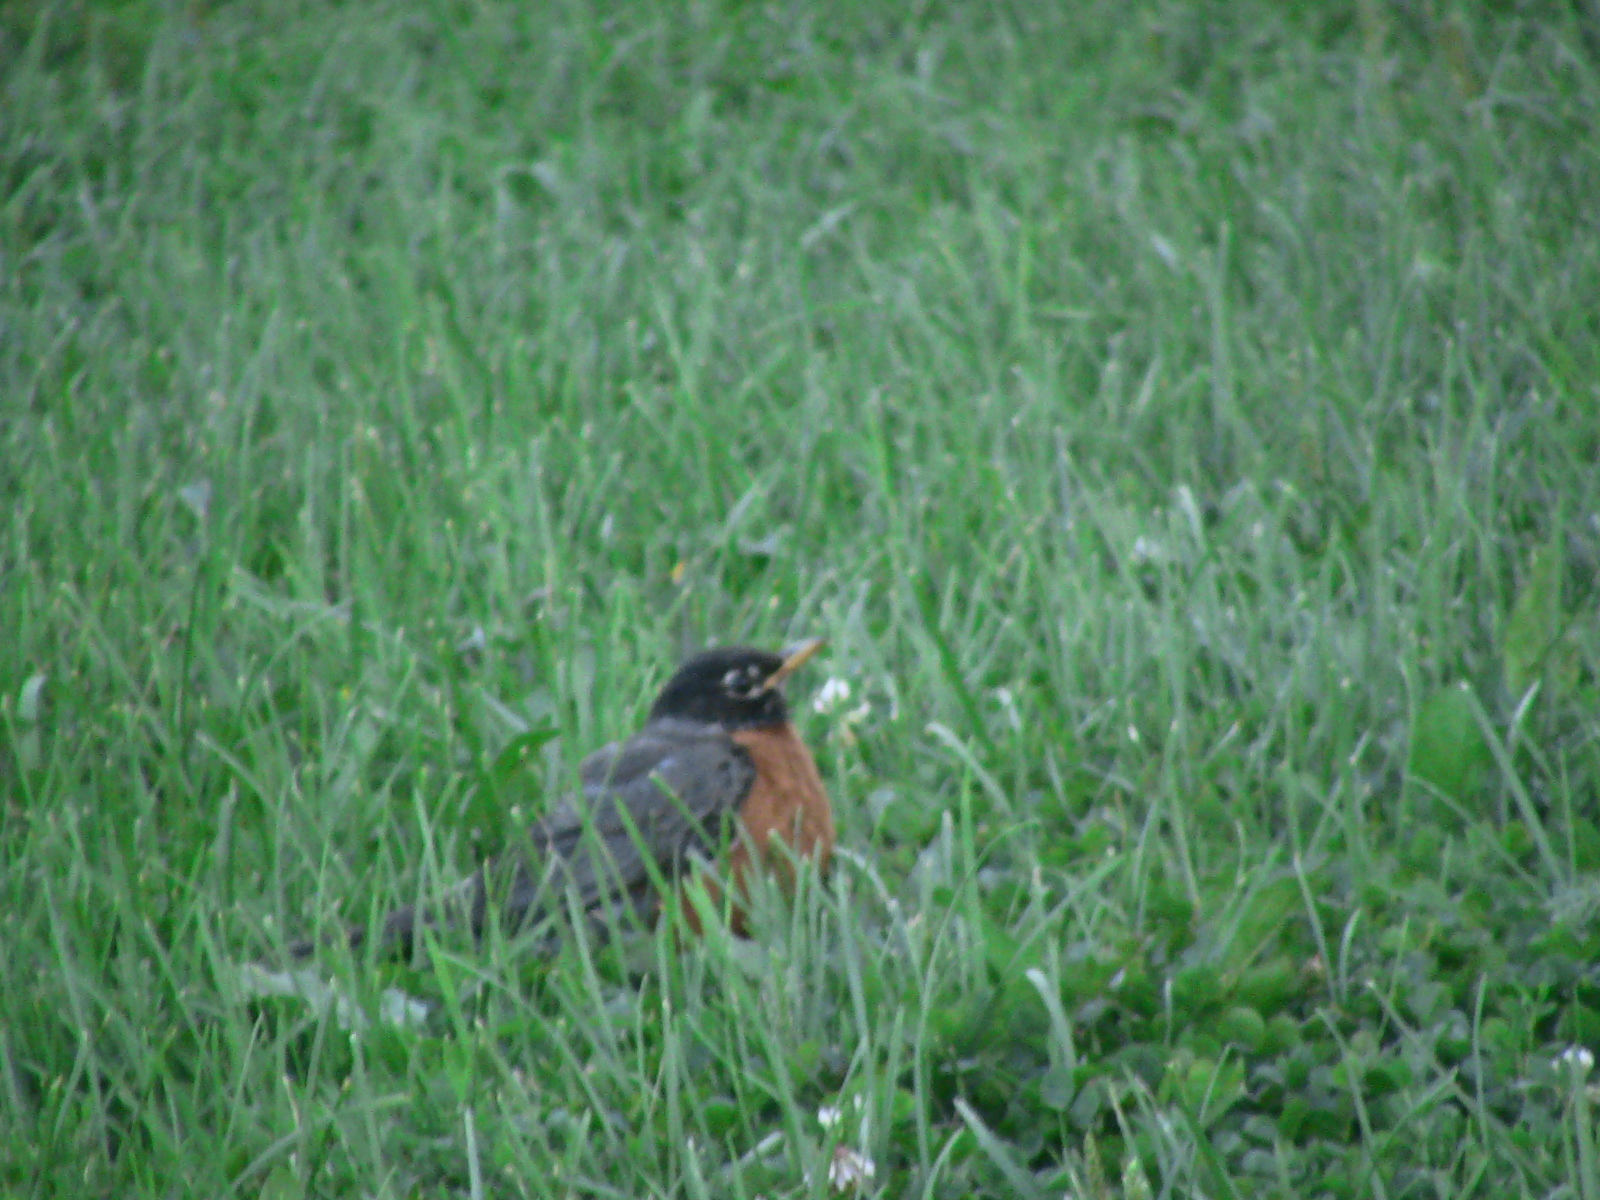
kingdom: Animalia
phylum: Chordata
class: Aves
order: Passeriformes
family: Turdidae
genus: Turdus
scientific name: Turdus migratorius
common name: American robin
